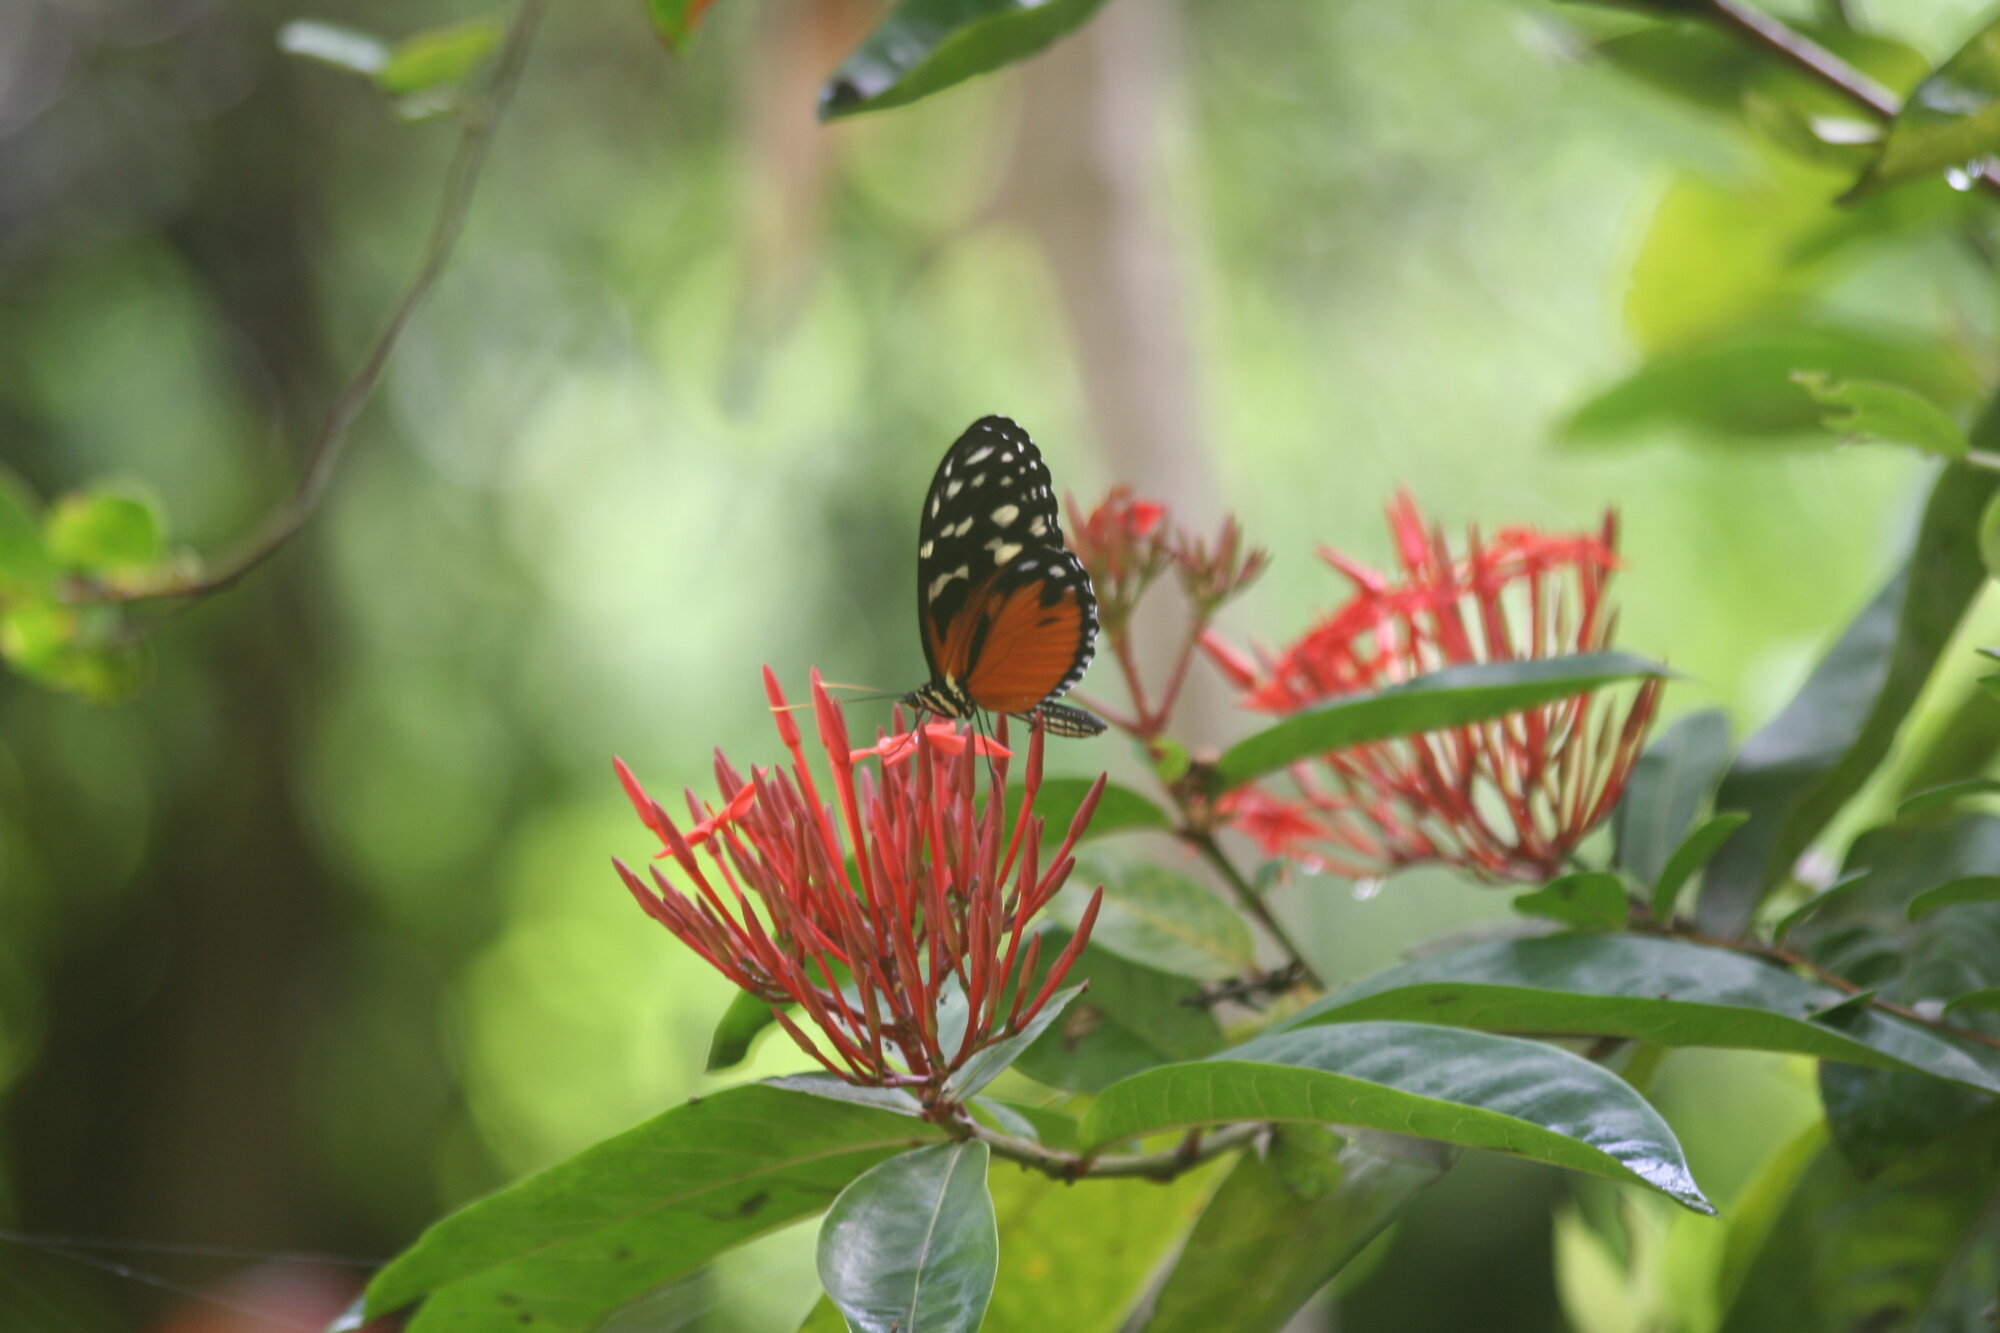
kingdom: Animalia
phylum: Arthropoda
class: Insecta
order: Lepidoptera
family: Nymphalidae
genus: Heliconius
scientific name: Heliconius hecale
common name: Tiger longwing
